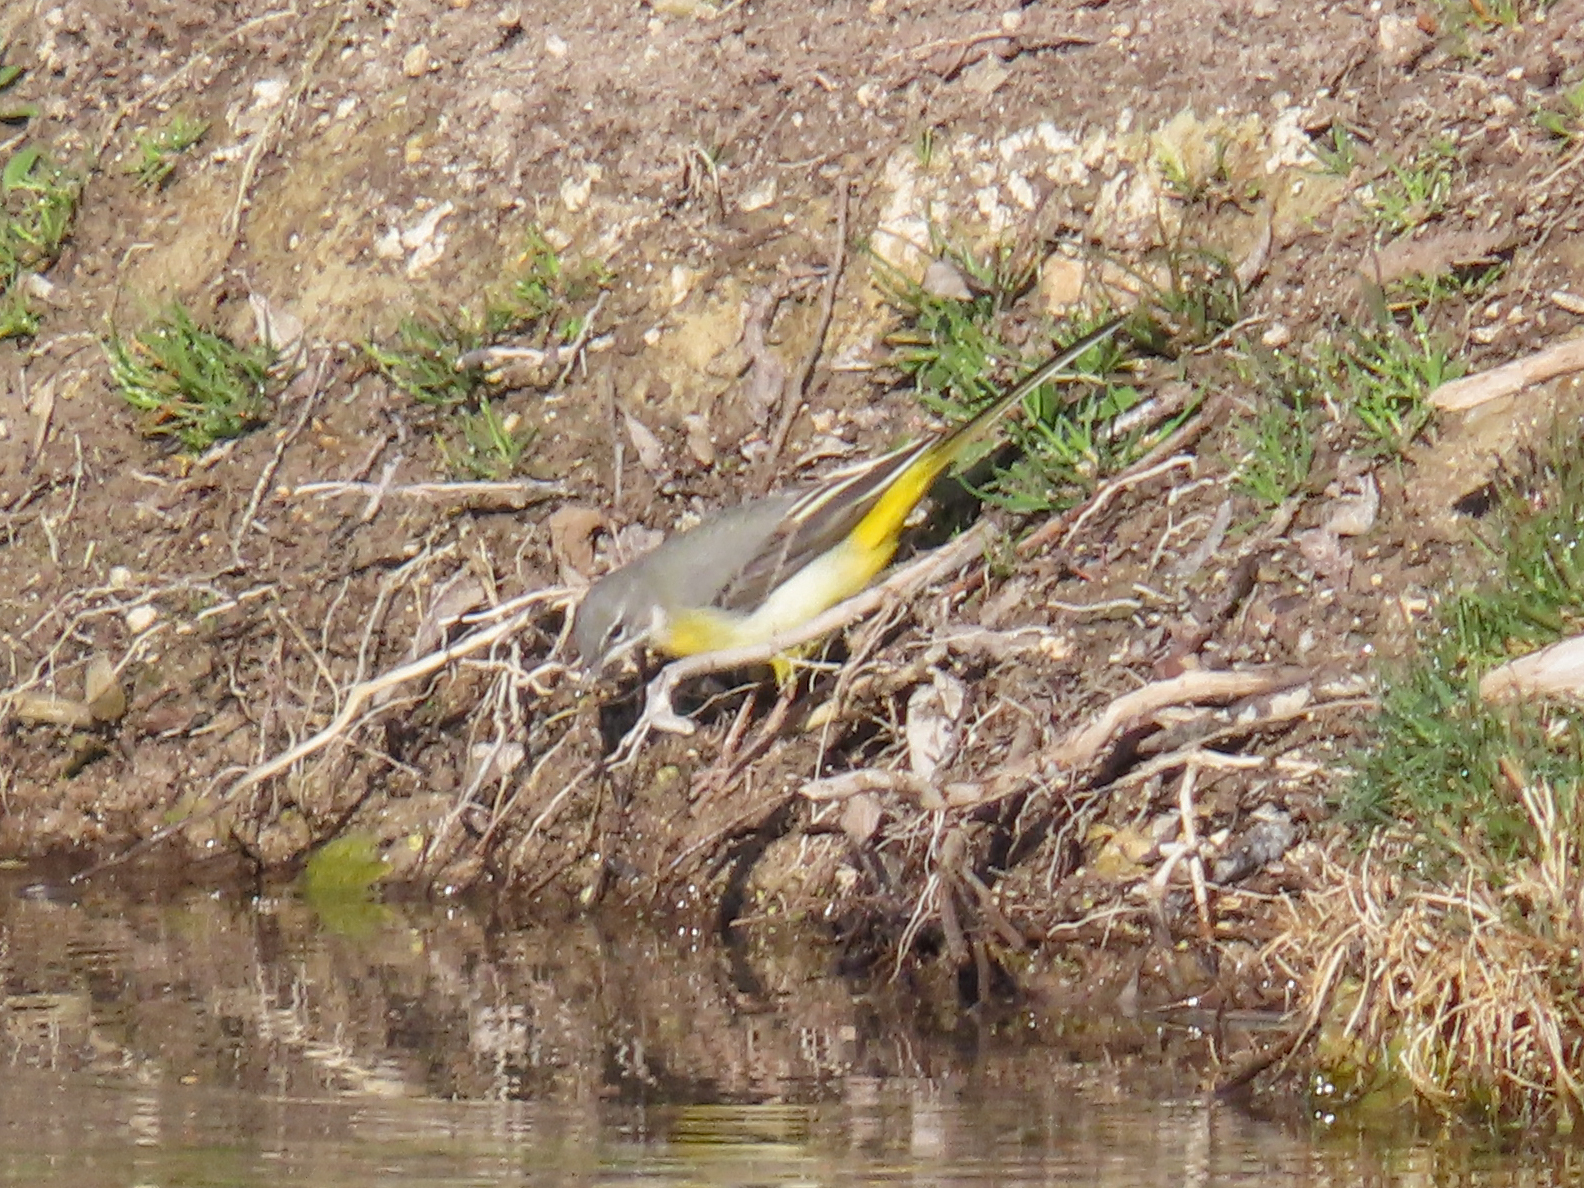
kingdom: Animalia
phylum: Chordata
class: Aves
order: Passeriformes
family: Motacillidae
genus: Motacilla
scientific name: Motacilla cinerea
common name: Grey wagtail
